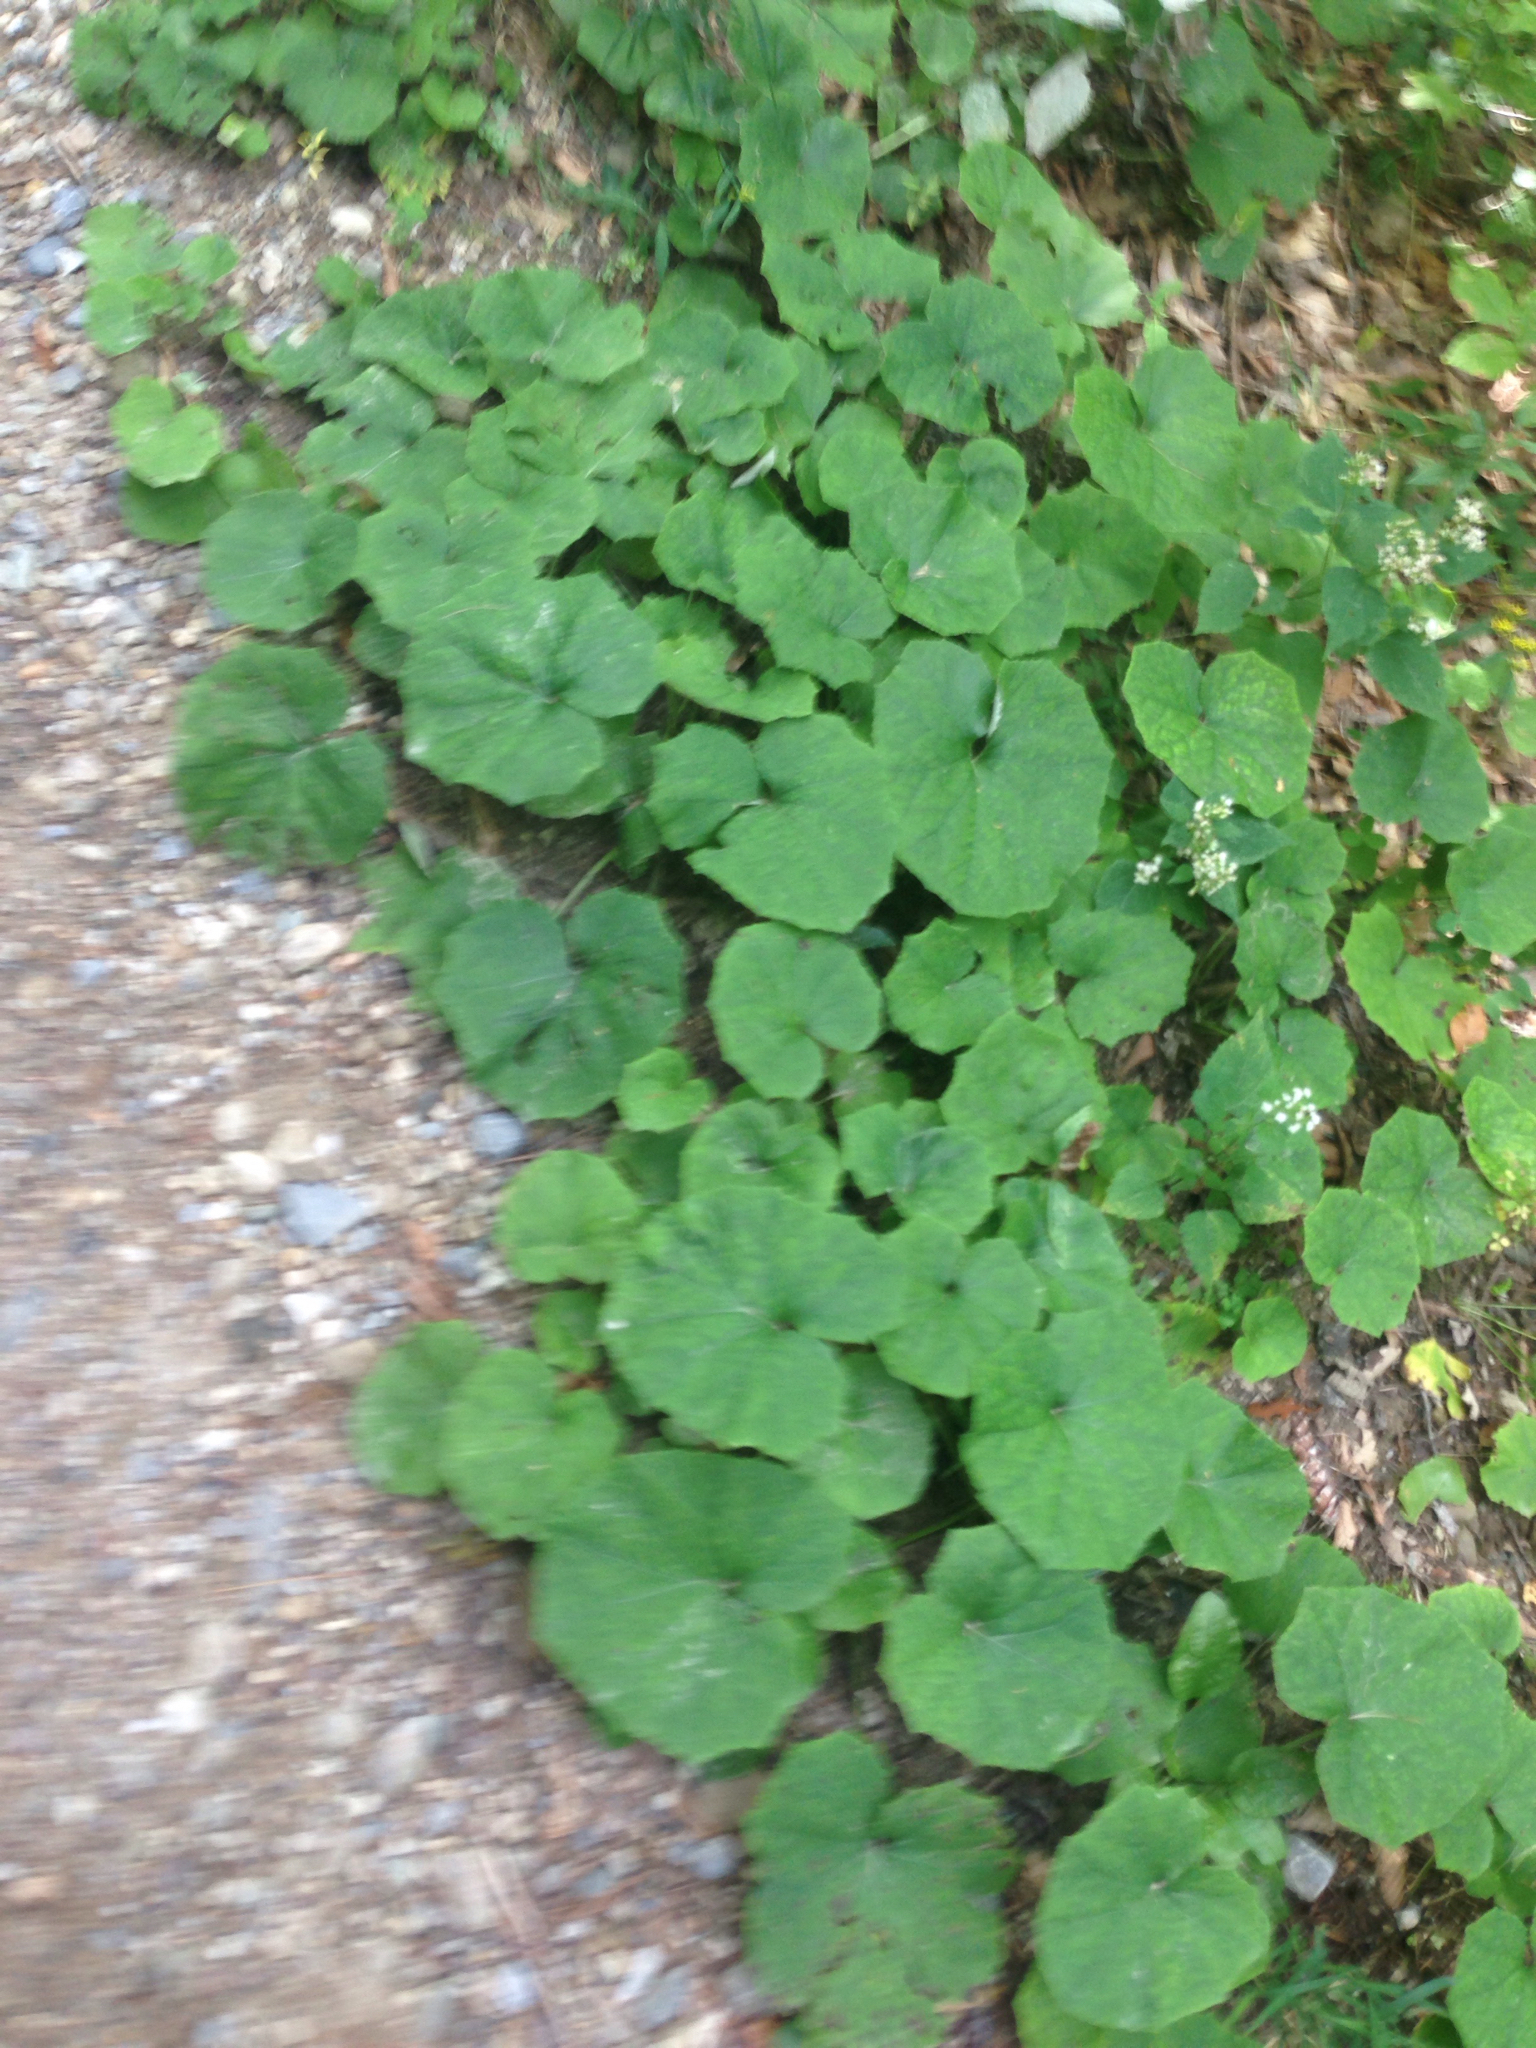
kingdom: Plantae
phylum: Tracheophyta
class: Magnoliopsida
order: Asterales
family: Asteraceae
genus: Tussilago
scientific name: Tussilago farfara
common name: Coltsfoot
